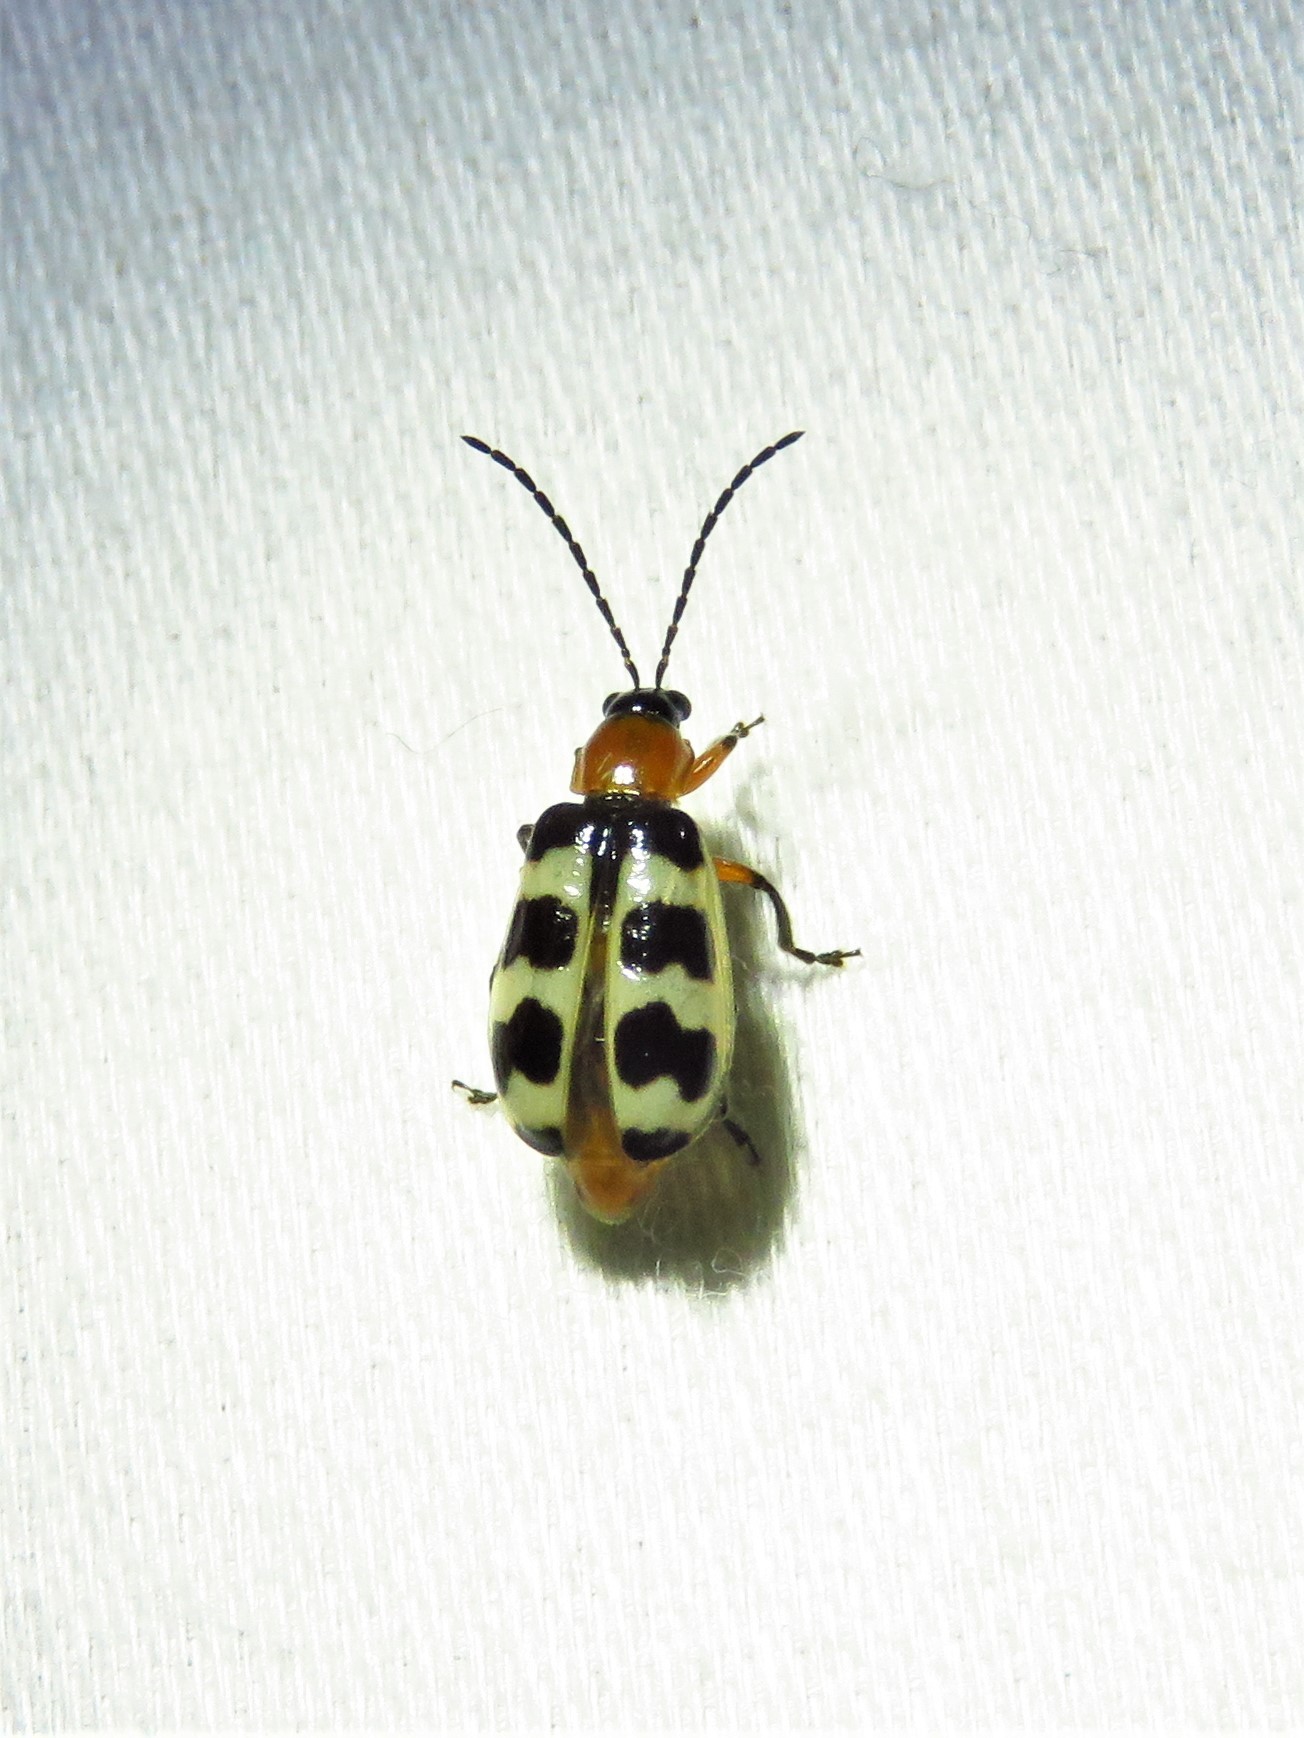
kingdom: Animalia
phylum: Arthropoda
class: Insecta
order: Coleoptera
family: Chrysomelidae
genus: Paranapiacaba
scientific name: Paranapiacaba tricincta
